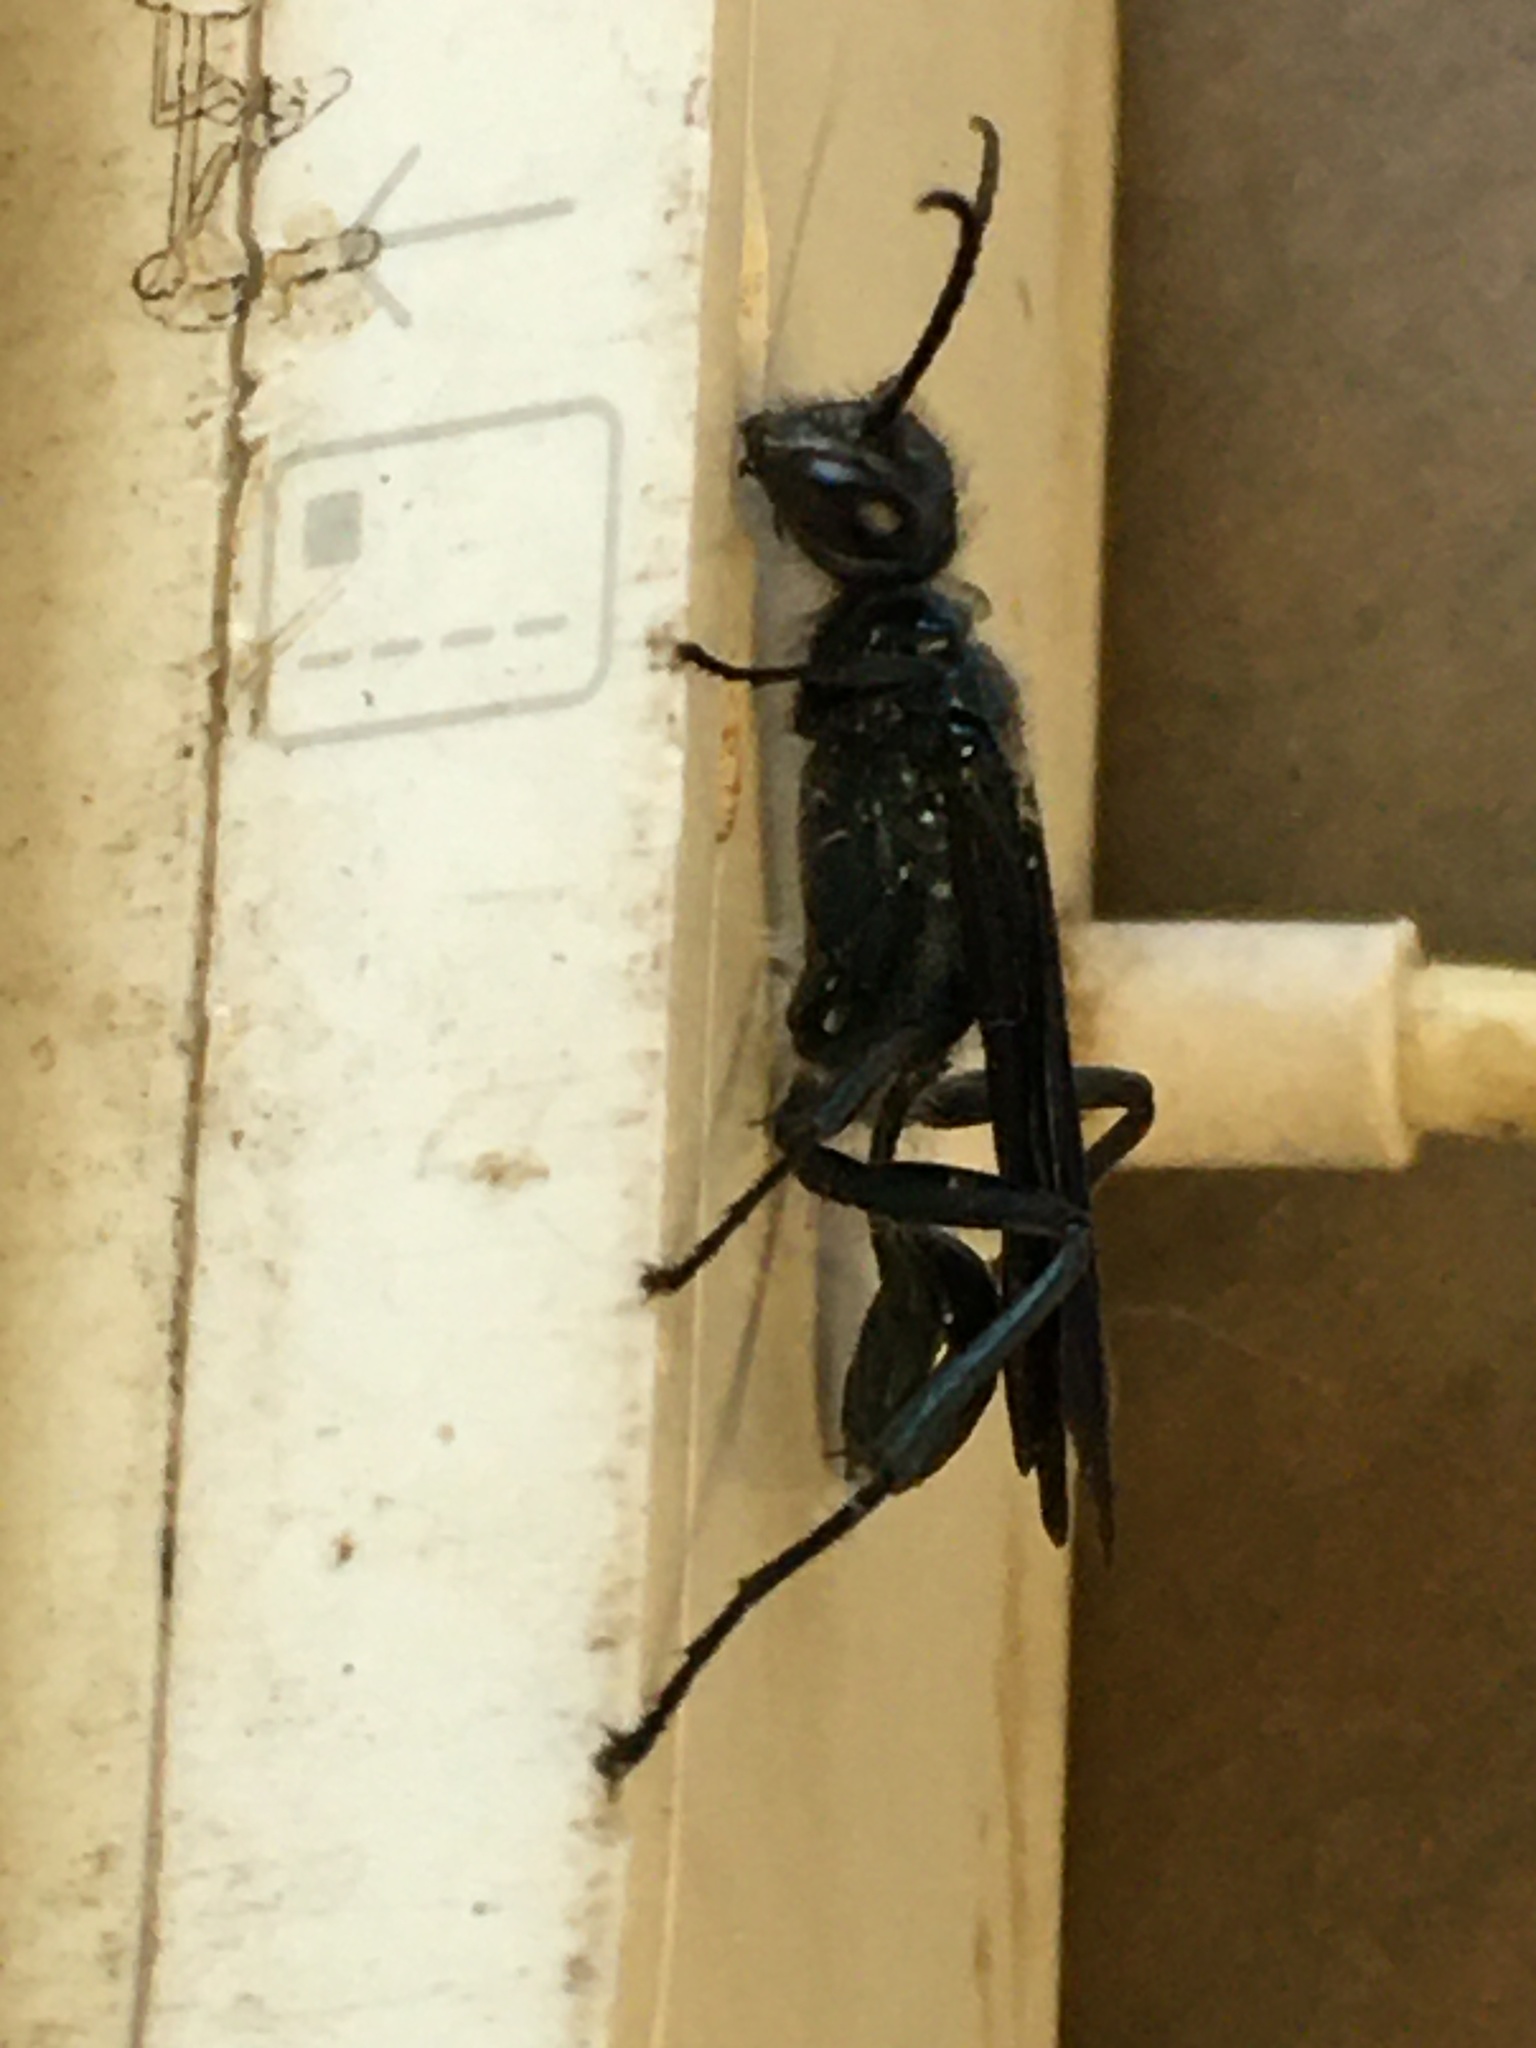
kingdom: Animalia
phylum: Arthropoda
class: Insecta
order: Hymenoptera
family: Sphecidae
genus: Chalybion
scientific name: Chalybion californicum
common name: Mud dauber
